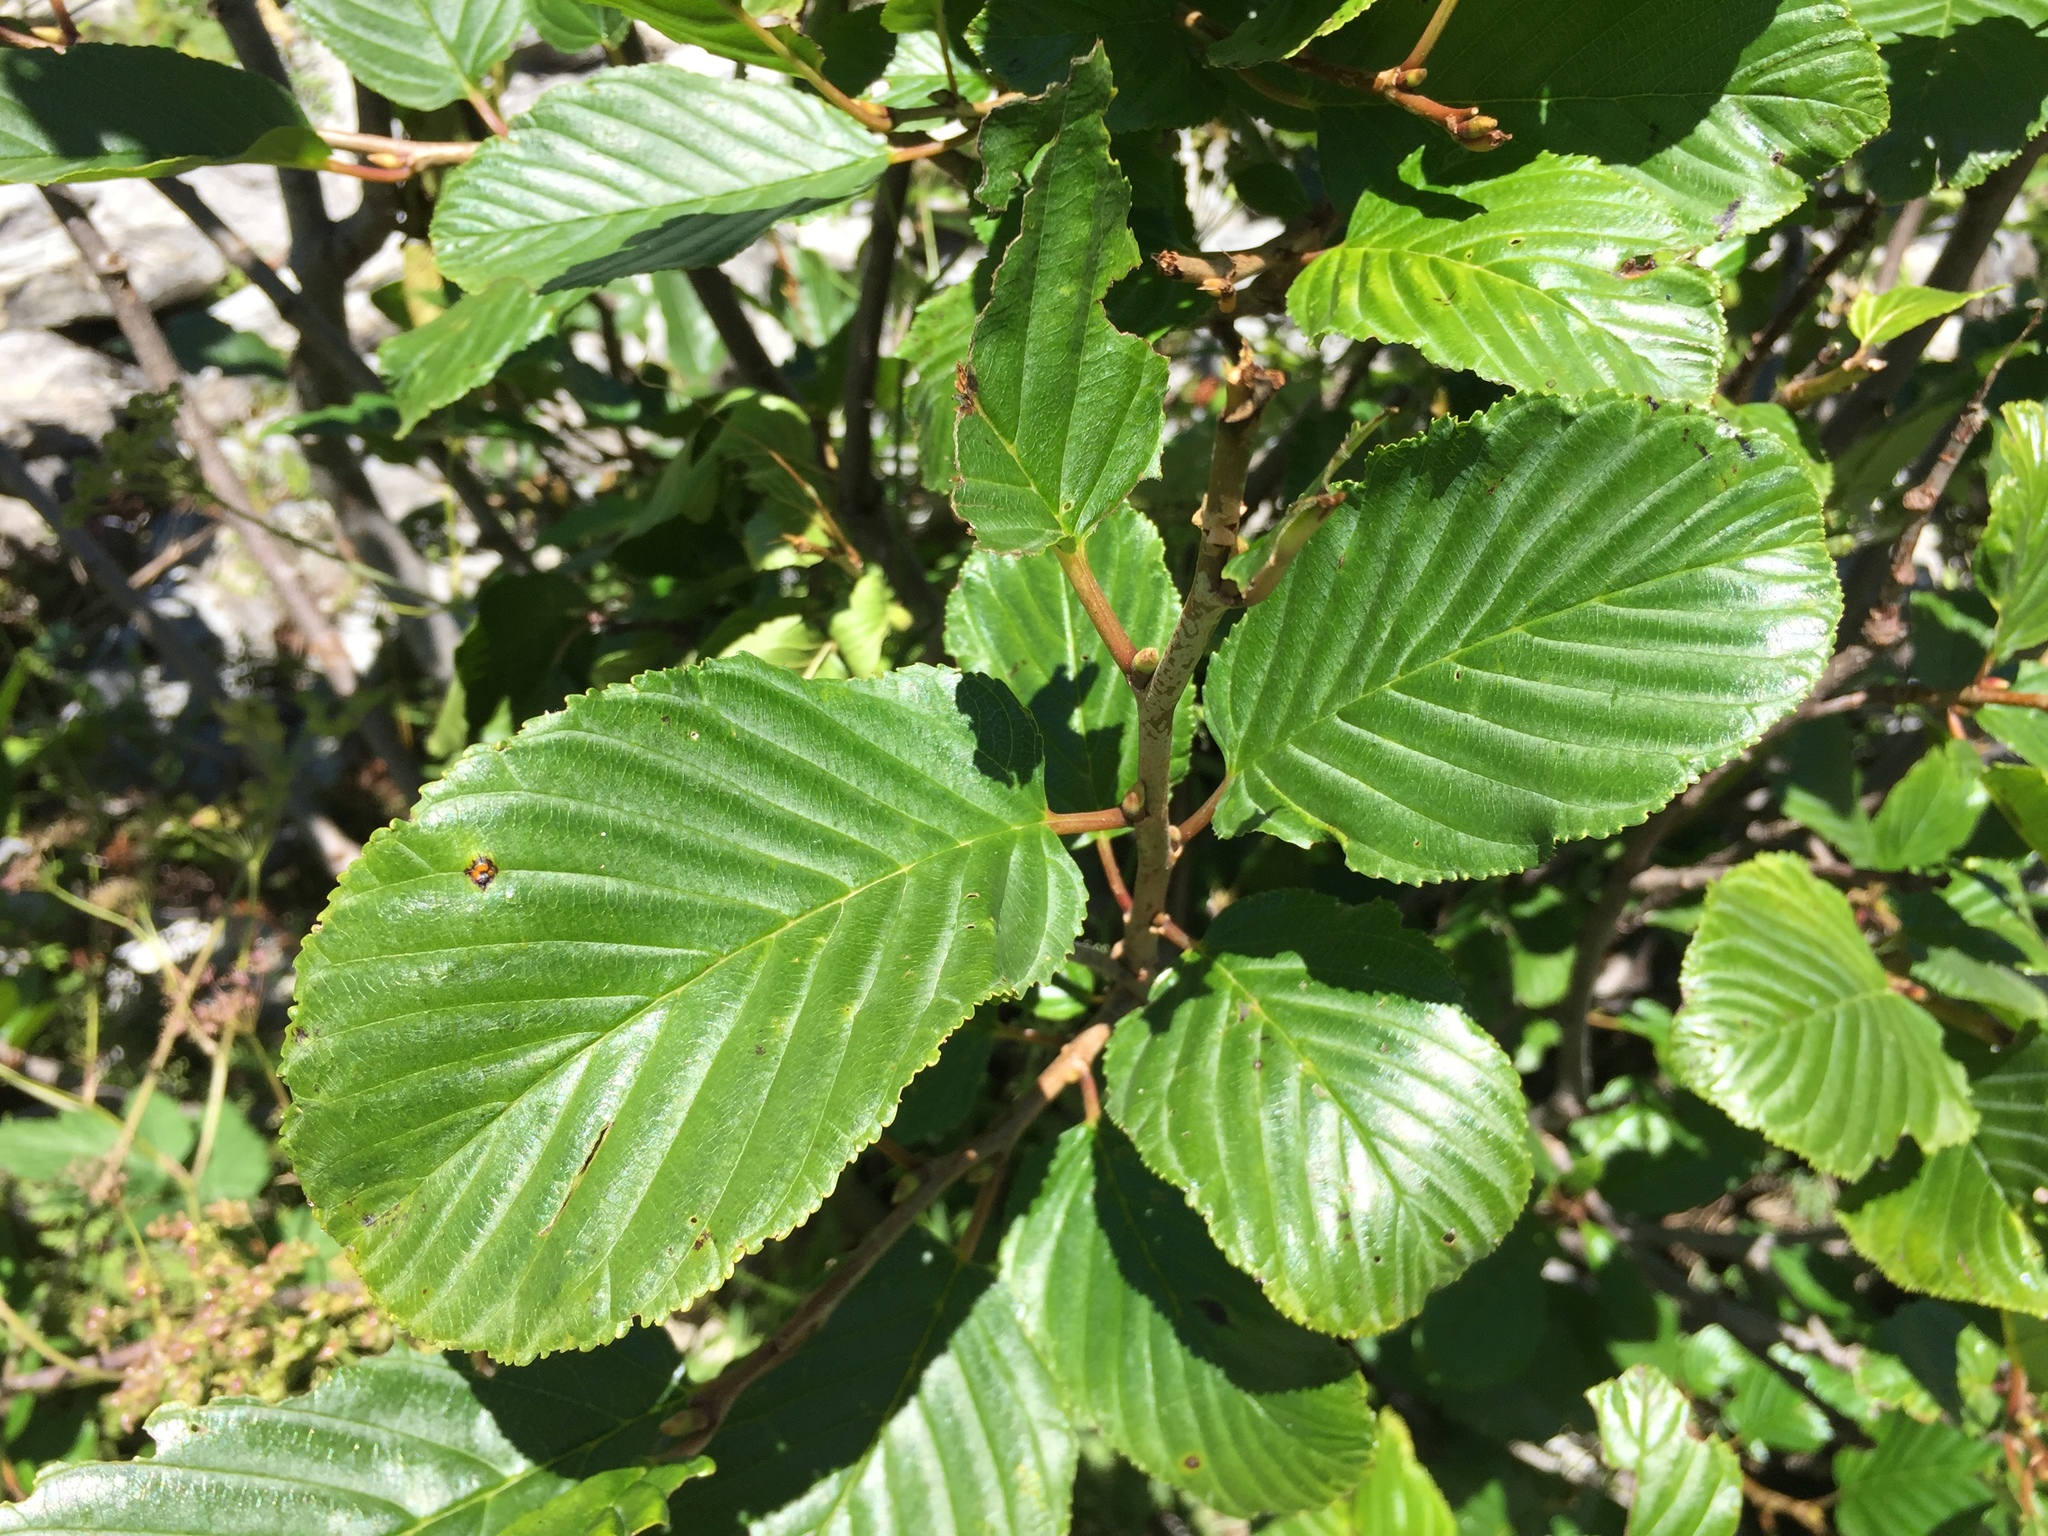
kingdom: Plantae
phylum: Tracheophyta
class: Magnoliopsida
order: Rosales
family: Rhamnaceae
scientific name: Rhamnaceae
